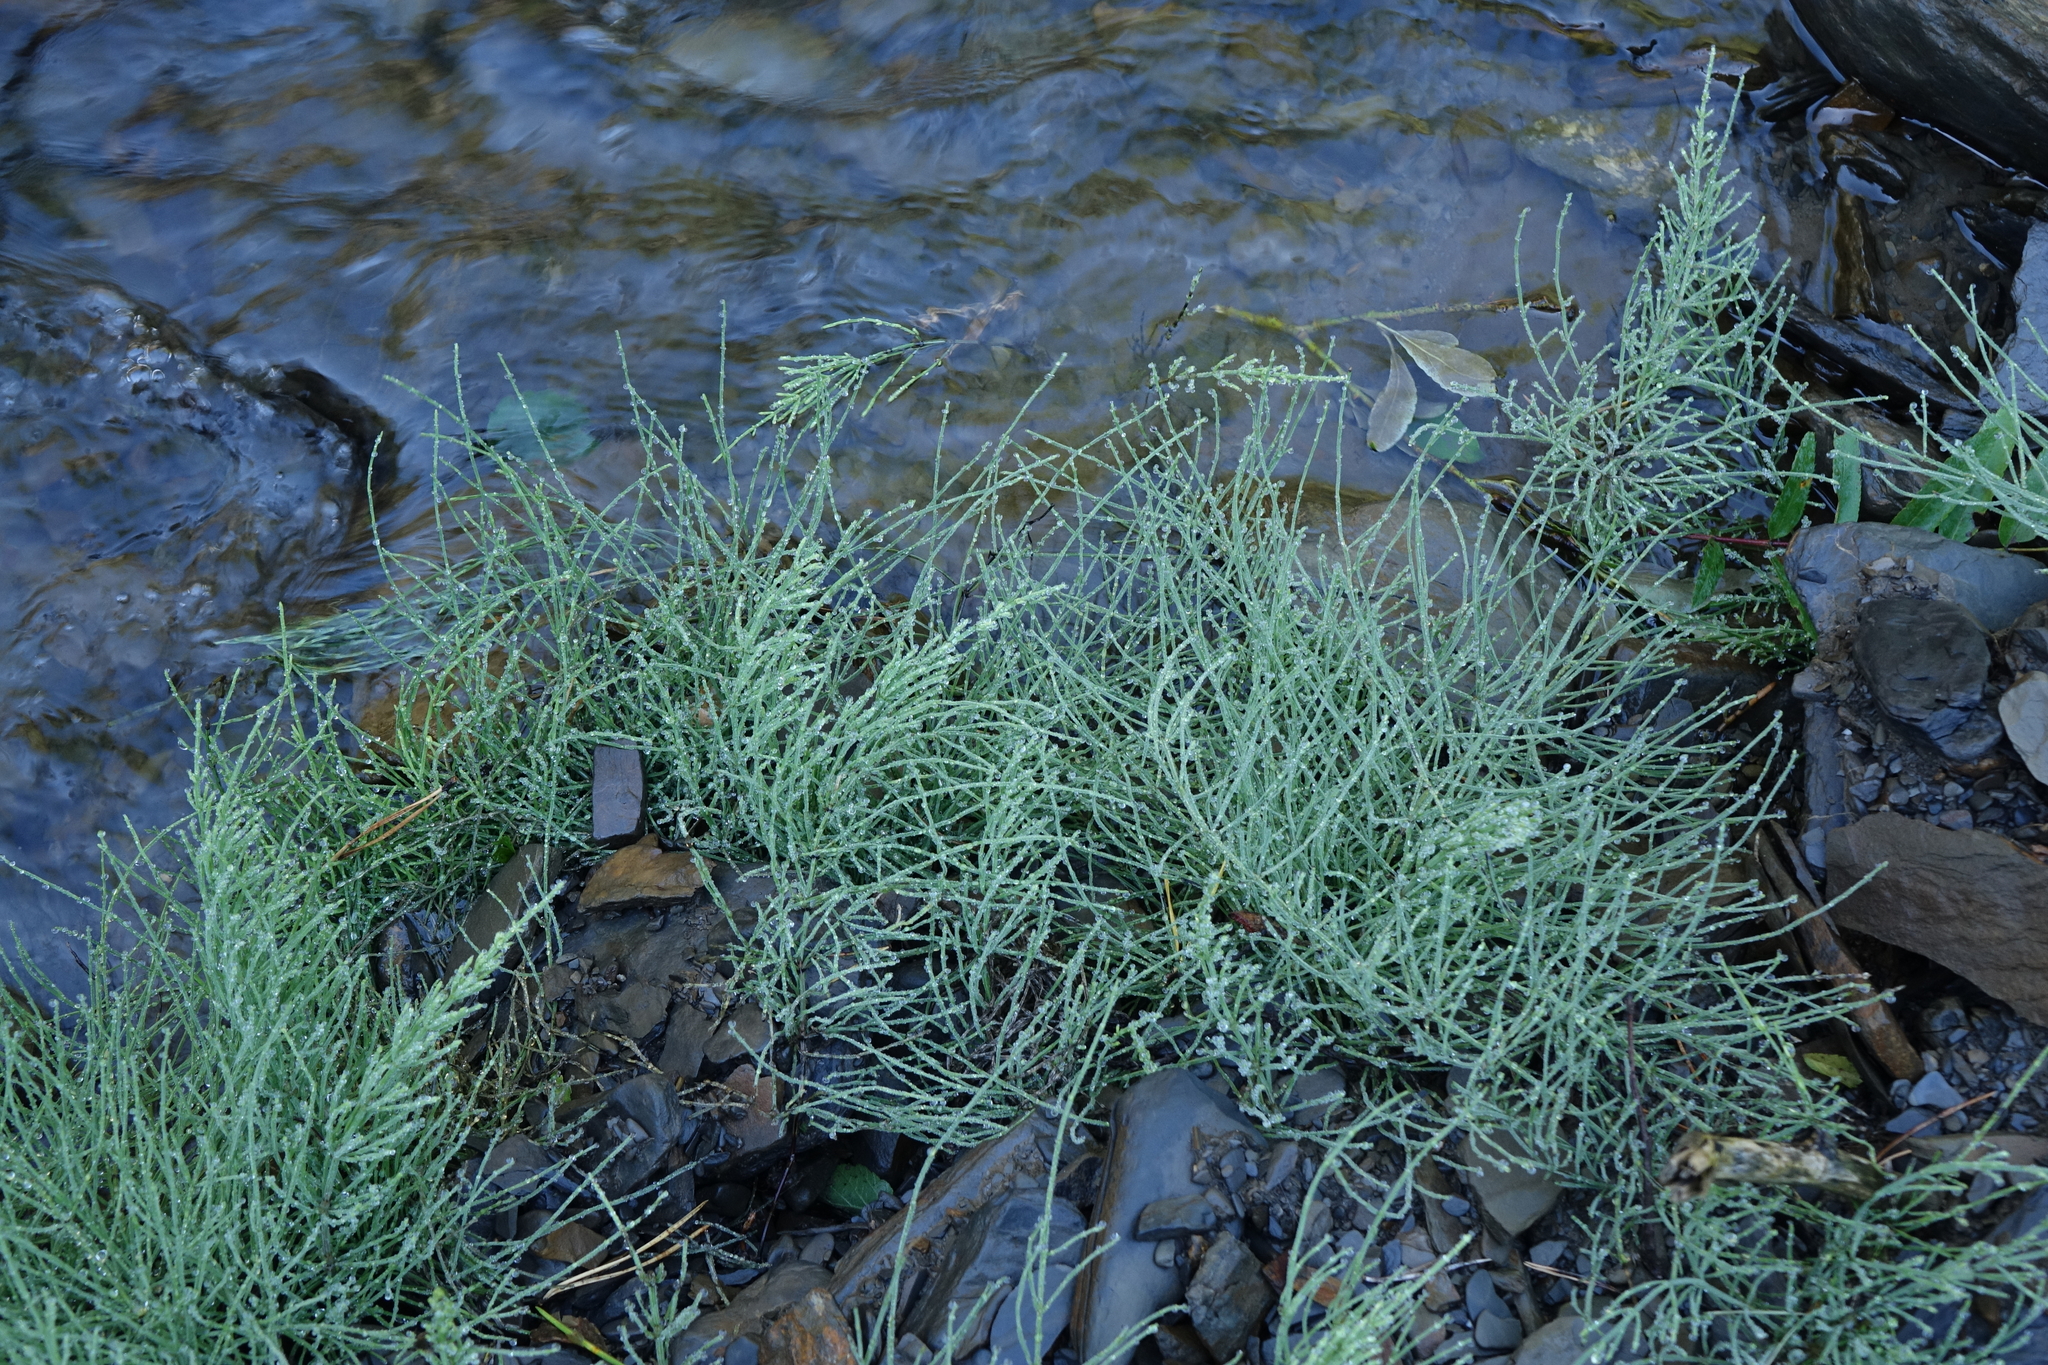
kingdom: Plantae
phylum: Tracheophyta
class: Polypodiopsida
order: Equisetales
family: Equisetaceae
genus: Equisetum
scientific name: Equisetum arvense
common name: Field horsetail
